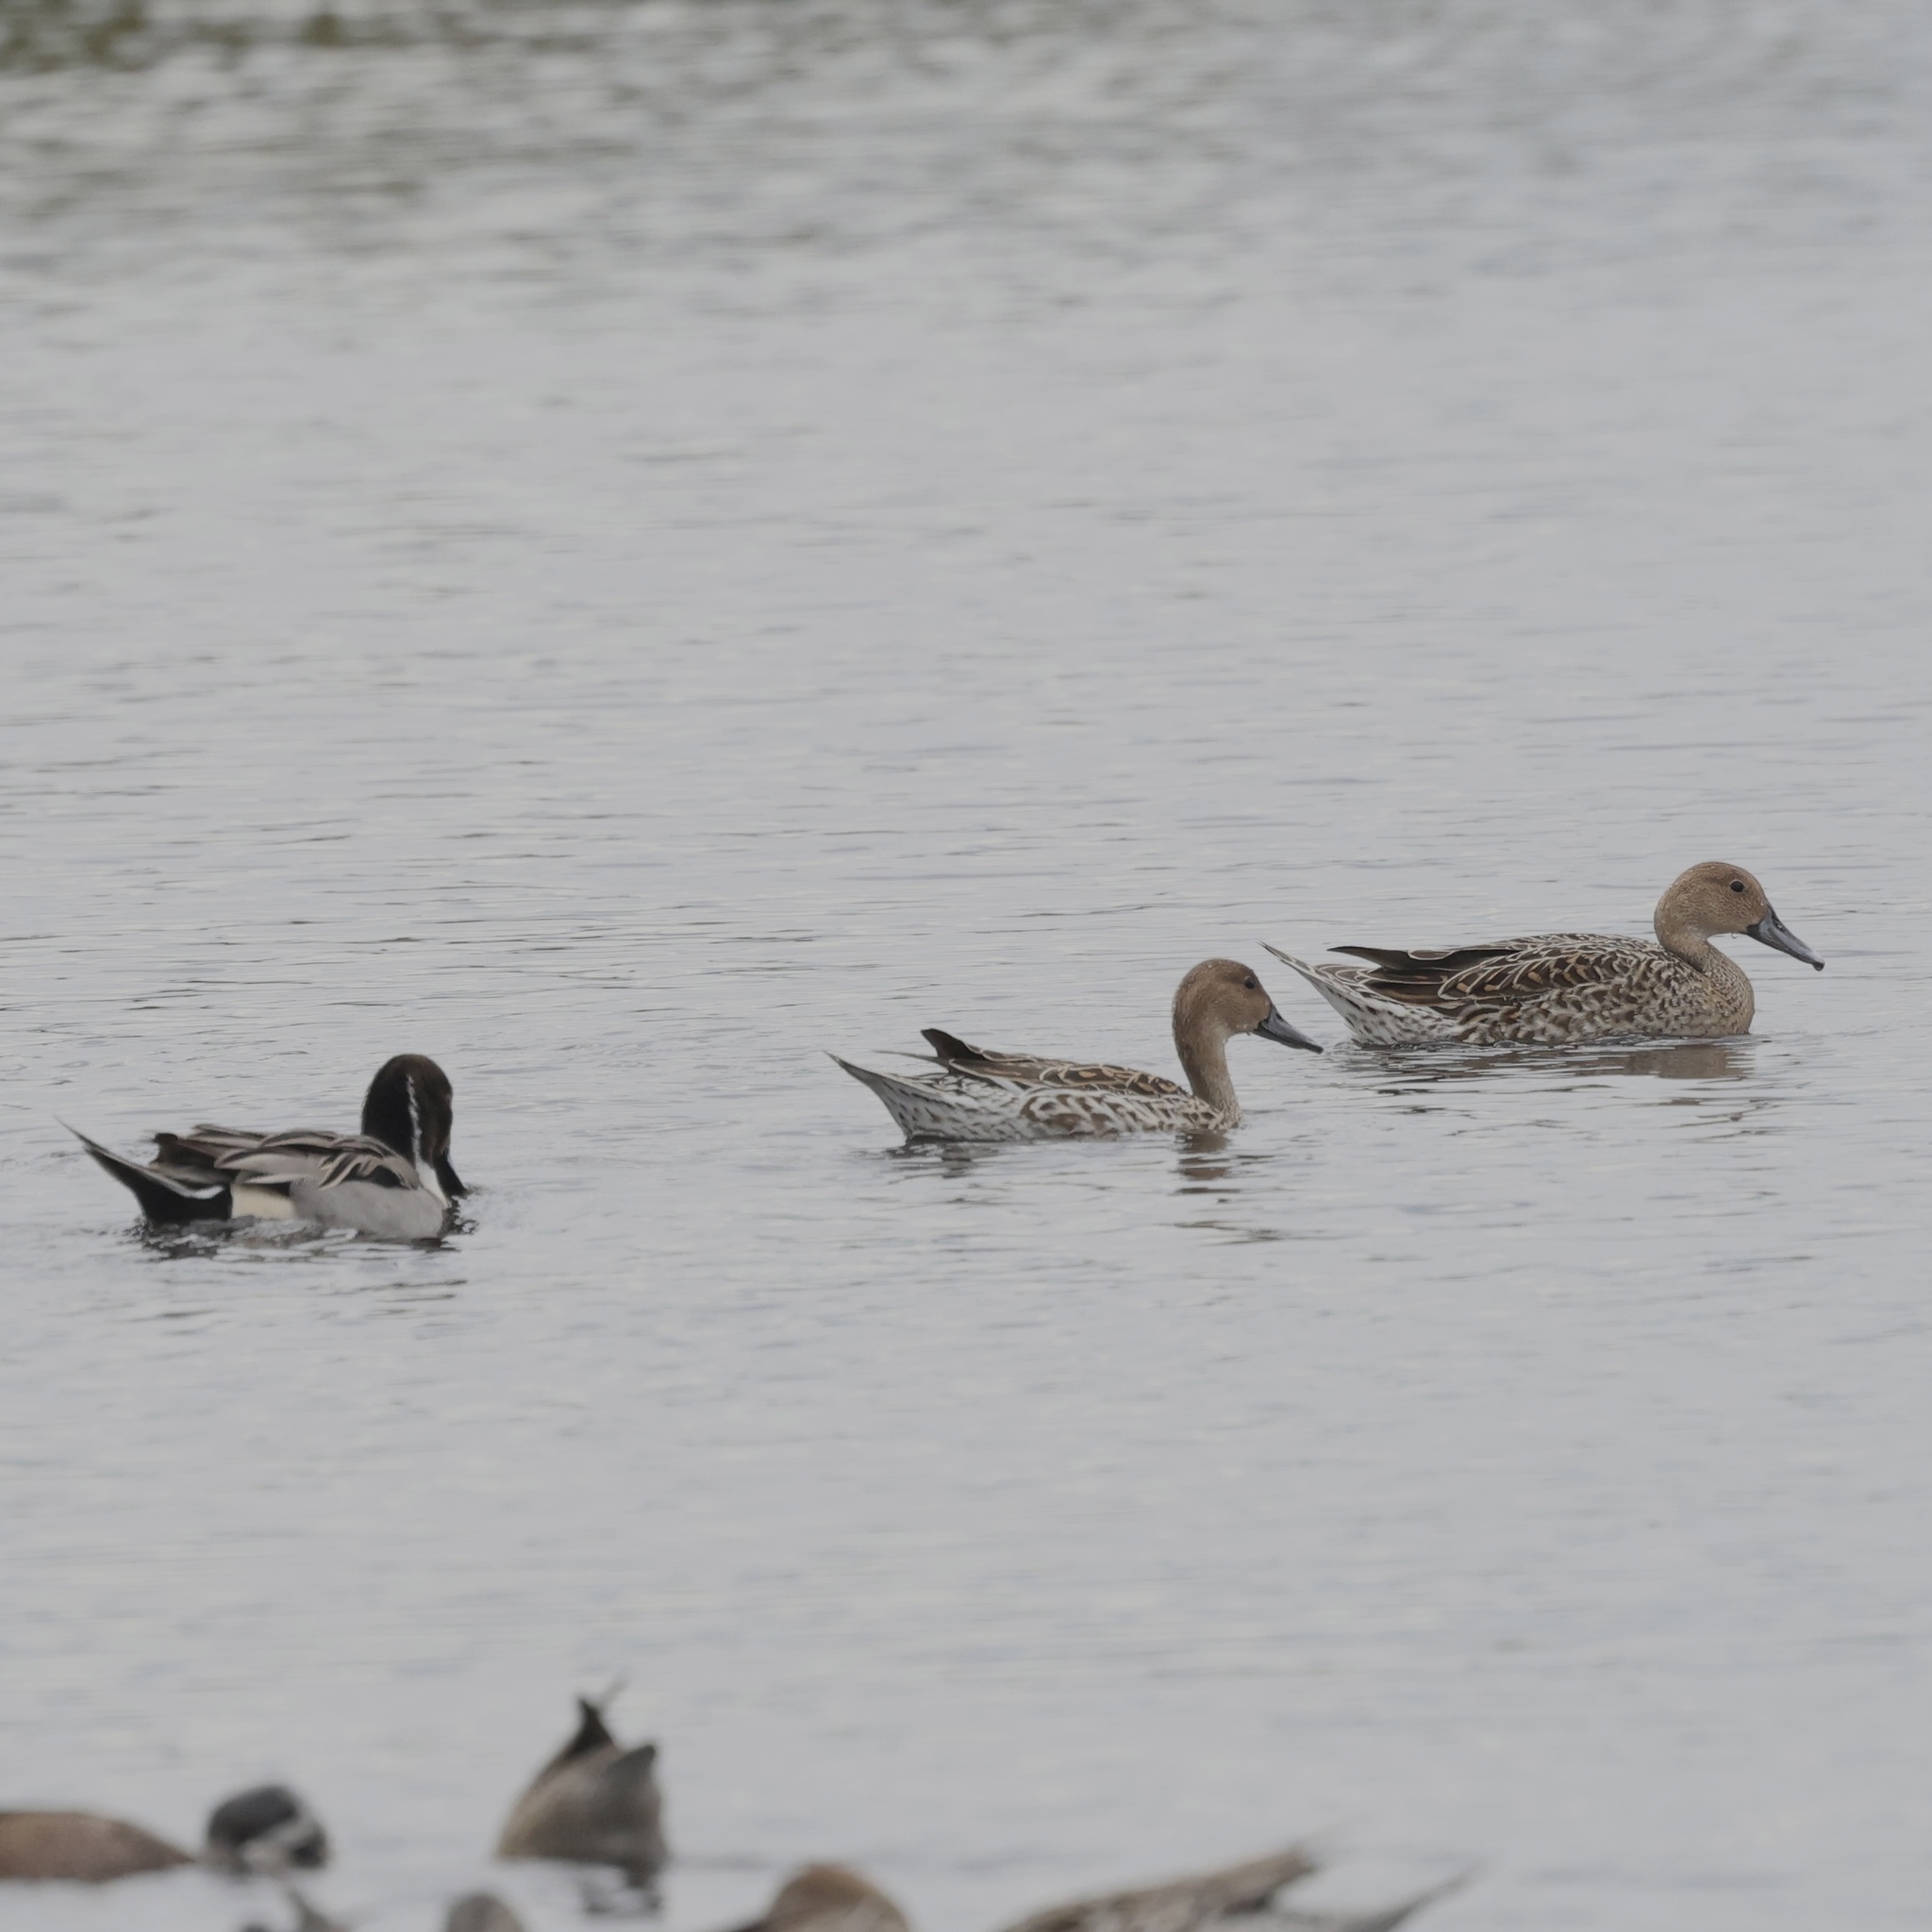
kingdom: Animalia
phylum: Chordata
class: Aves
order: Anseriformes
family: Anatidae
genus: Anas
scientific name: Anas acuta
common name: Northern pintail
